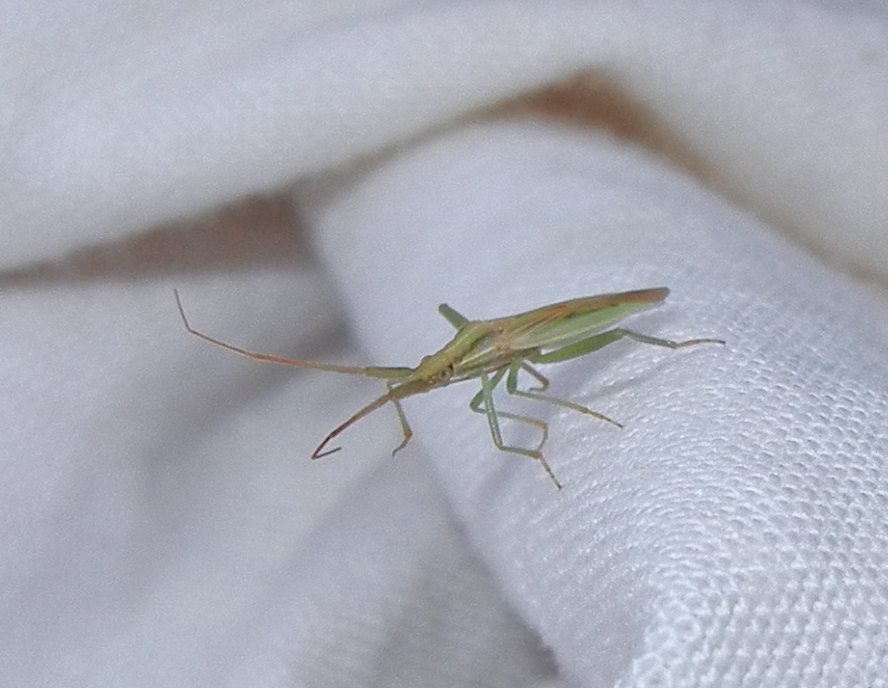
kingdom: Animalia
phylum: Arthropoda
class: Insecta
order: Hemiptera
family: Miridae
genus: Stenodema
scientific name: Stenodema laevigata
